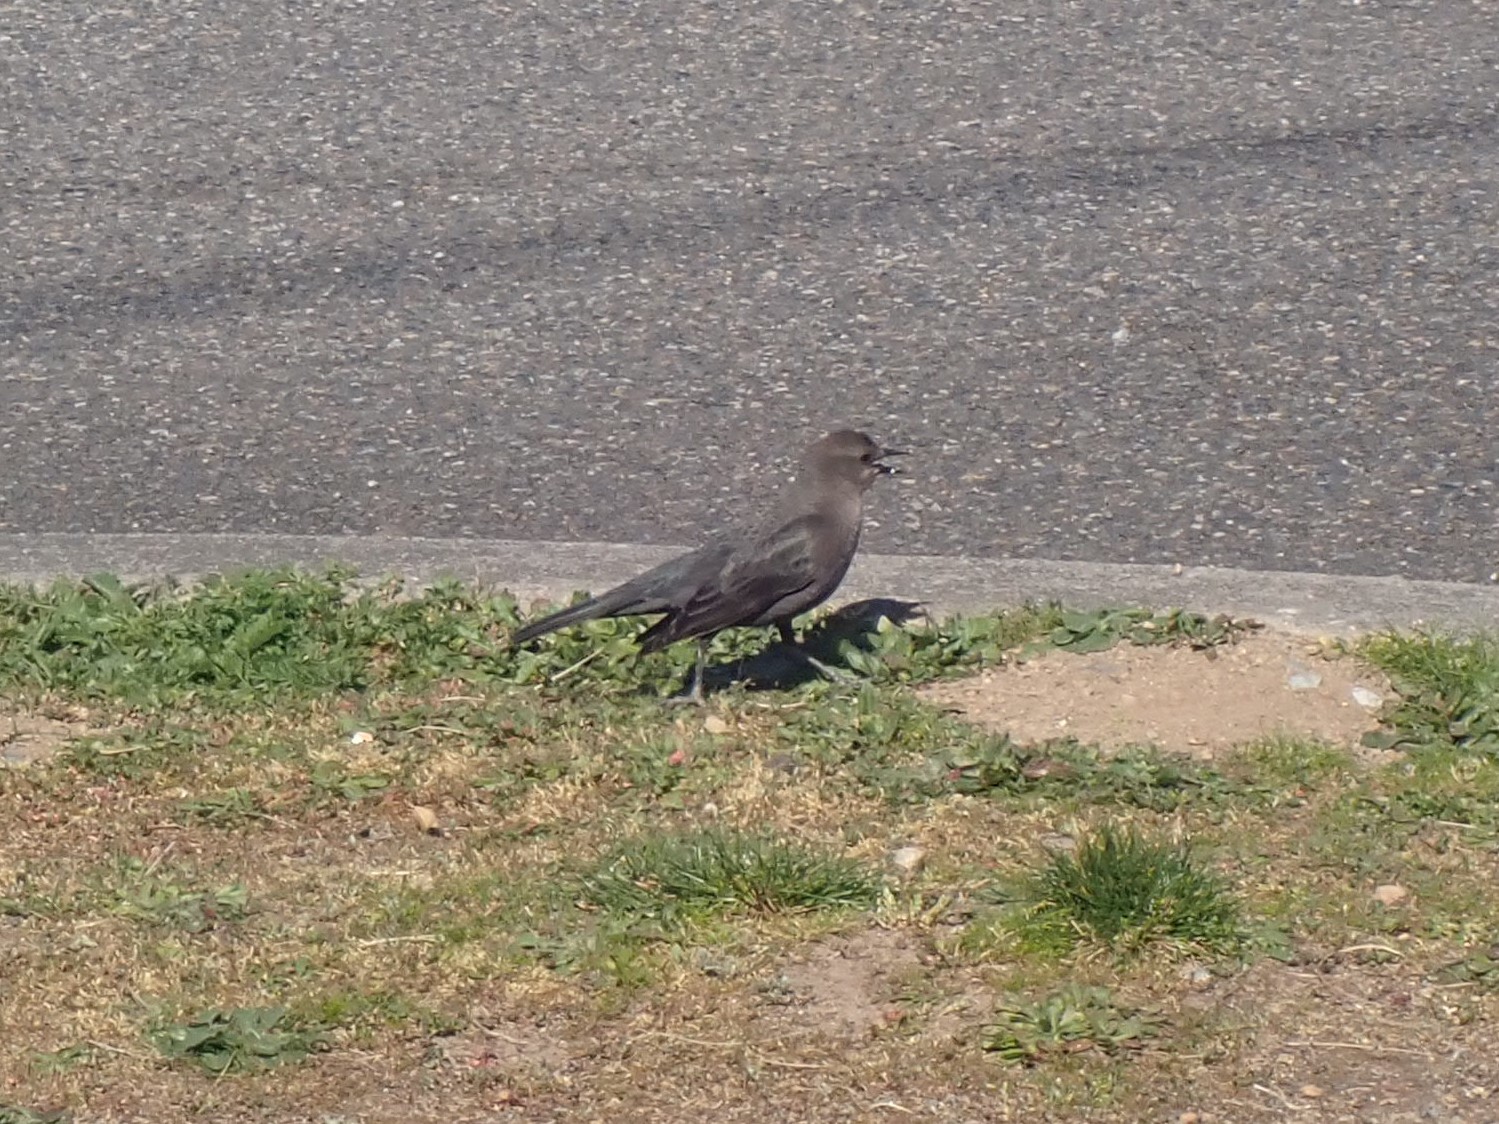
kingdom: Animalia
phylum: Chordata
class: Aves
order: Passeriformes
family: Icteridae
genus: Euphagus
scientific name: Euphagus cyanocephalus
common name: Brewer's blackbird
